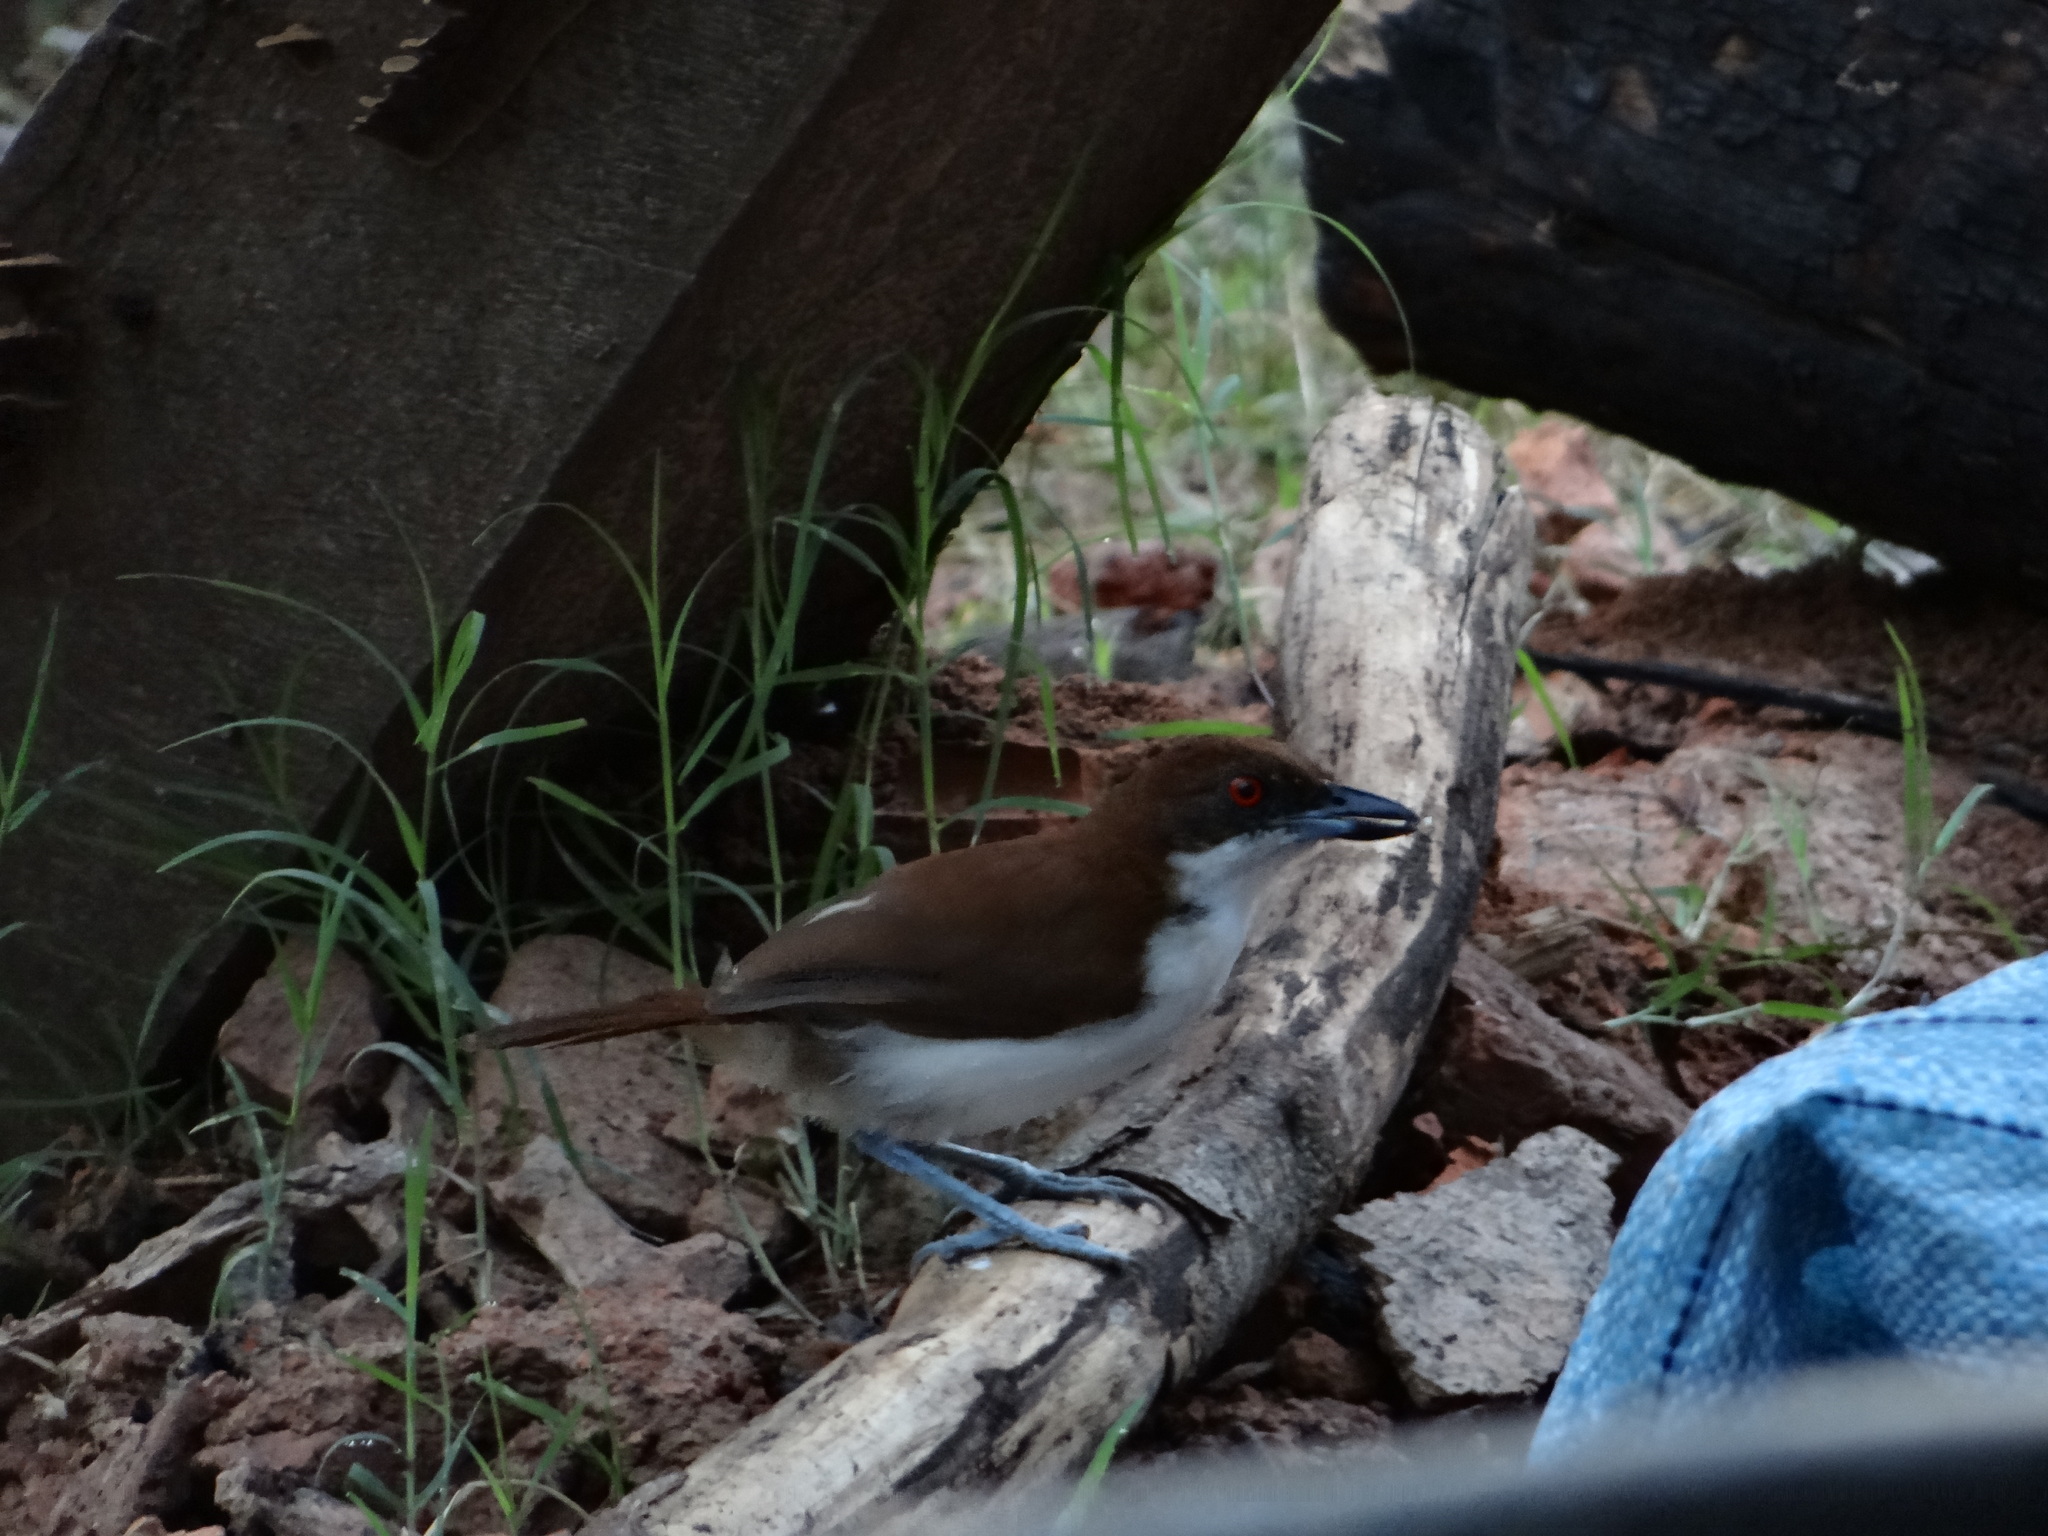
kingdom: Animalia
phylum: Chordata
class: Aves
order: Passeriformes
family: Thamnophilidae
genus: Taraba
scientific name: Taraba major
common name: Great antshrike
